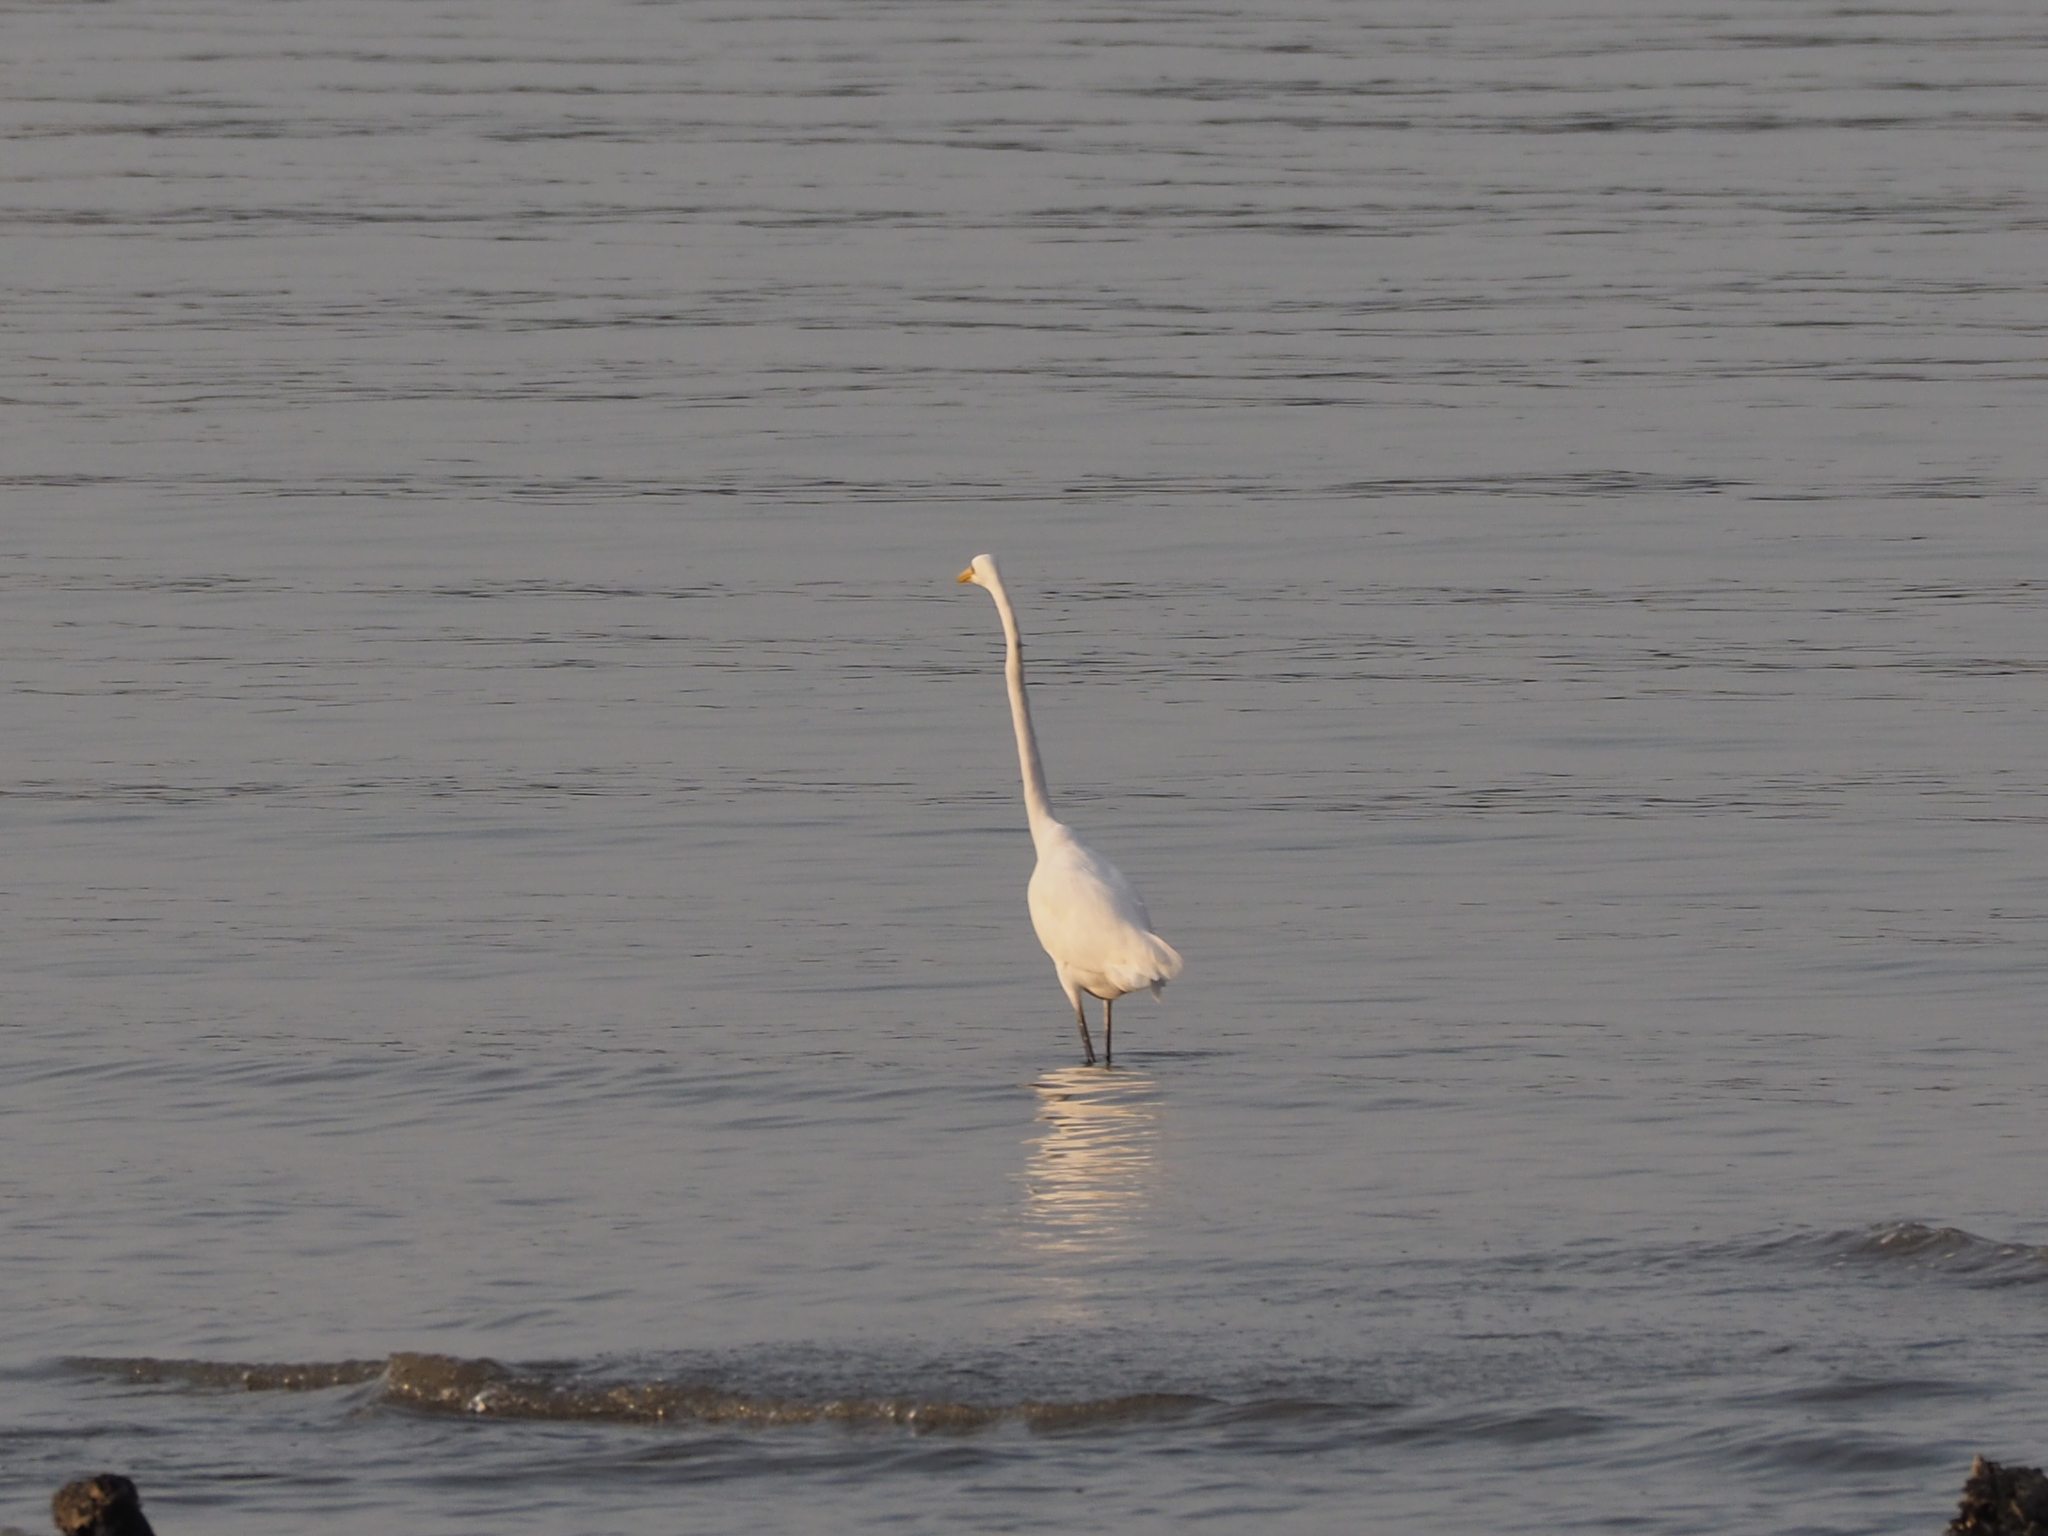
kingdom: Animalia
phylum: Chordata
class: Aves
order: Pelecaniformes
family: Ardeidae
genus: Ardea
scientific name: Ardea alba
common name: Great egret
